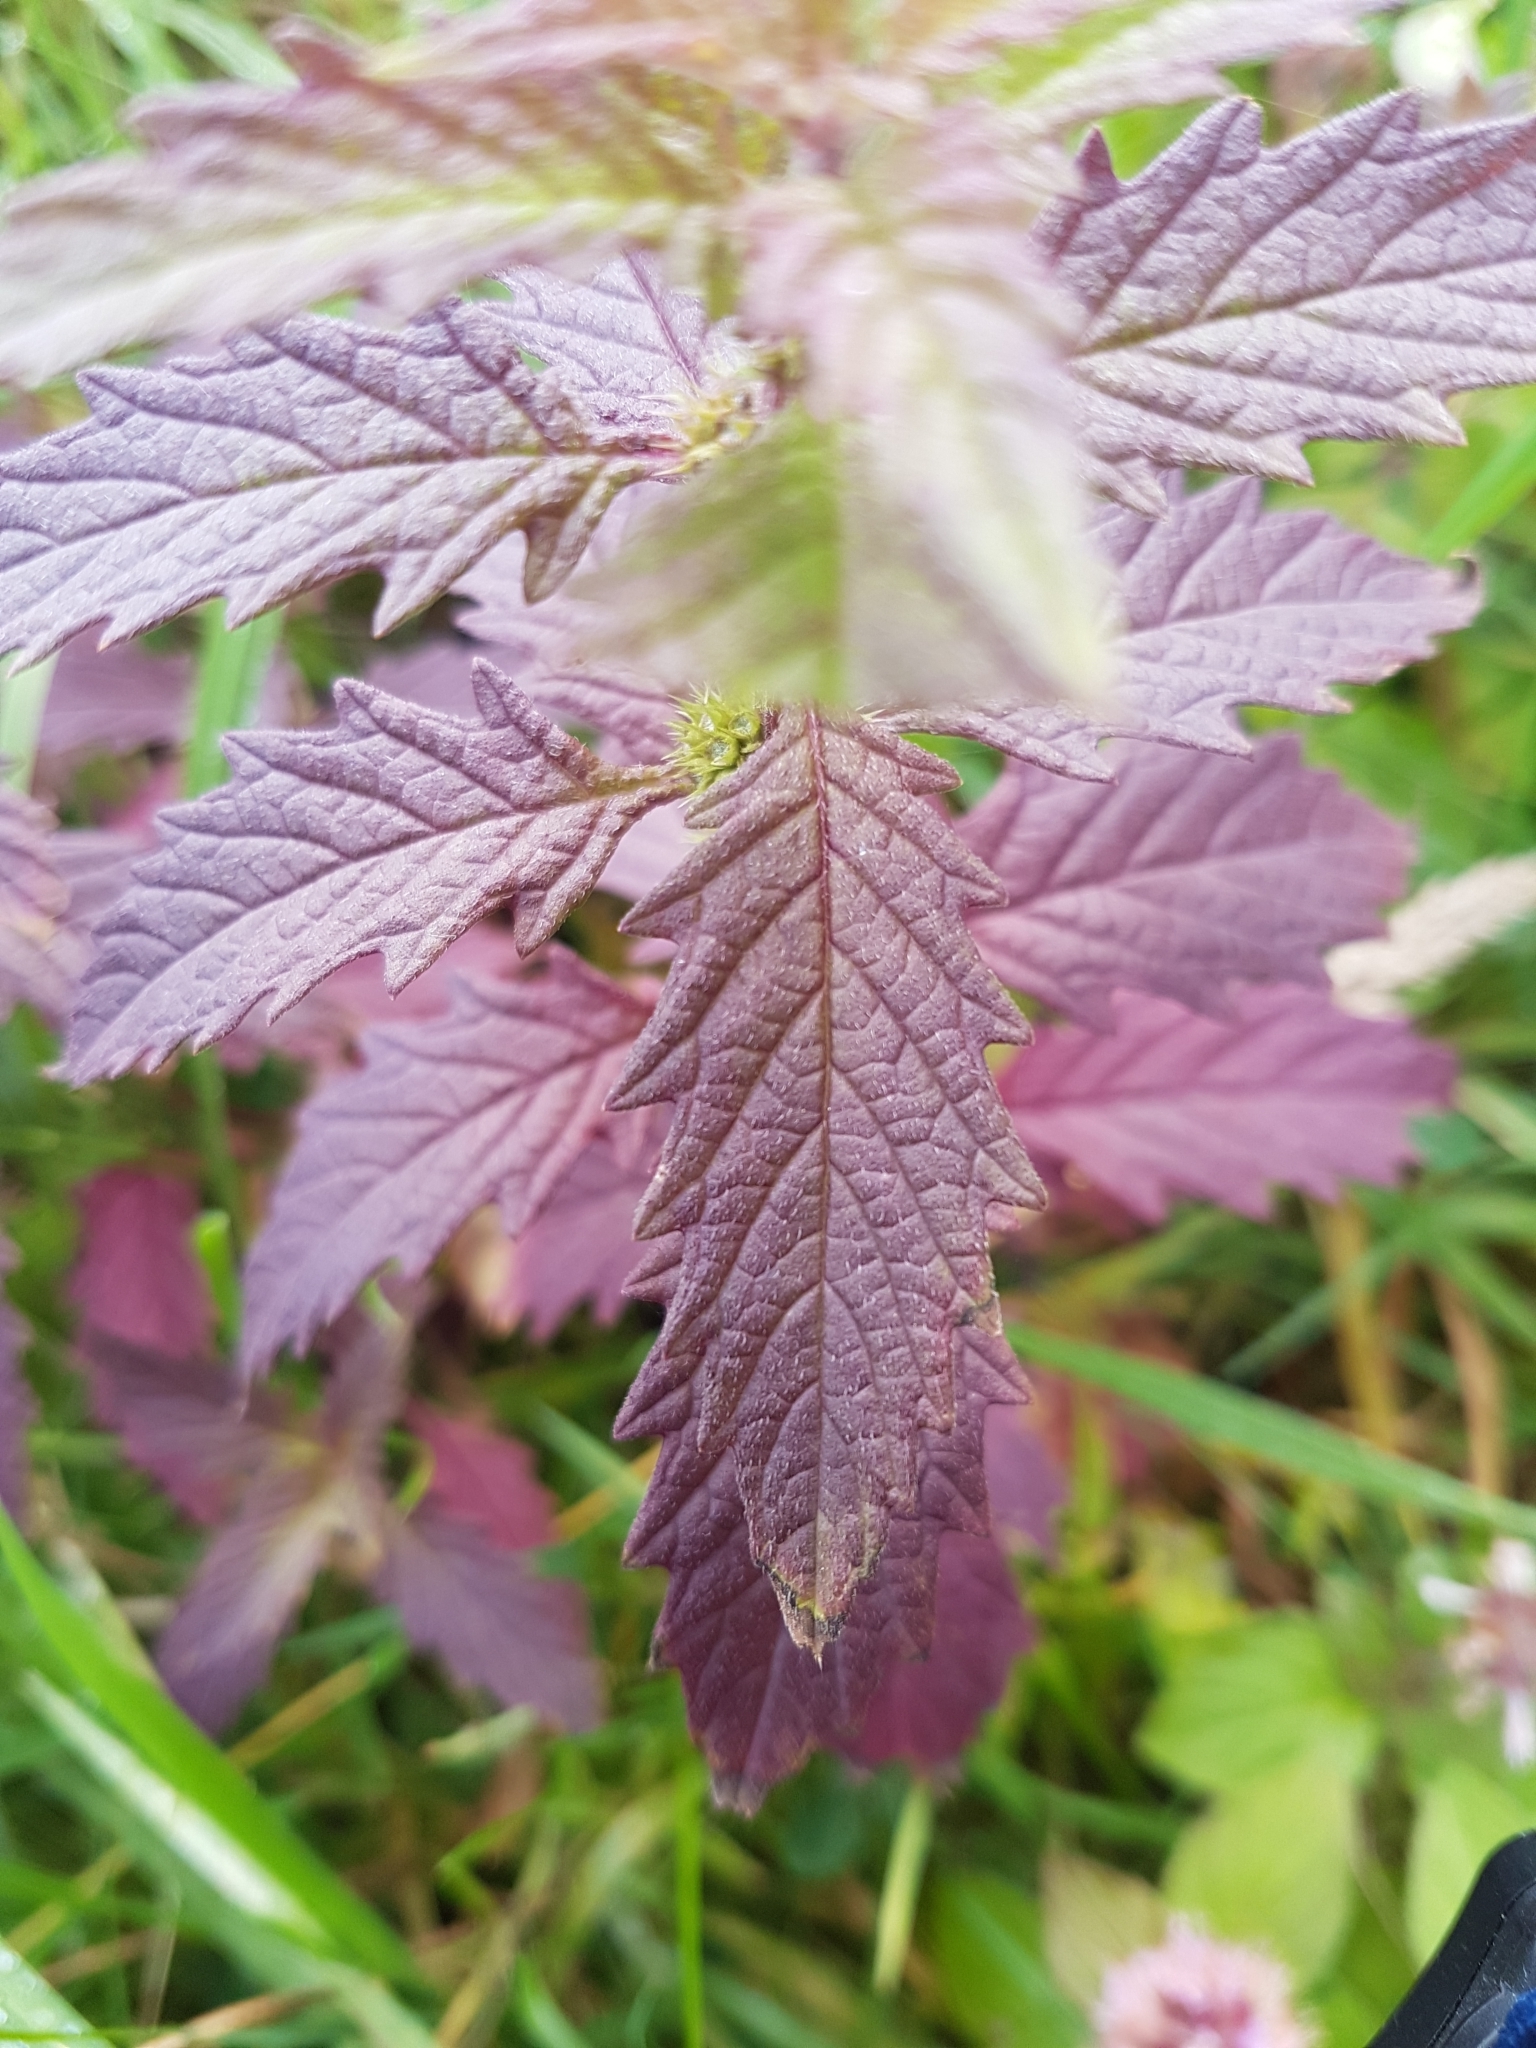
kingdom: Plantae
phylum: Tracheophyta
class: Magnoliopsida
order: Lamiales
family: Lamiaceae
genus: Lycopus
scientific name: Lycopus europaeus
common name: European bugleweed
